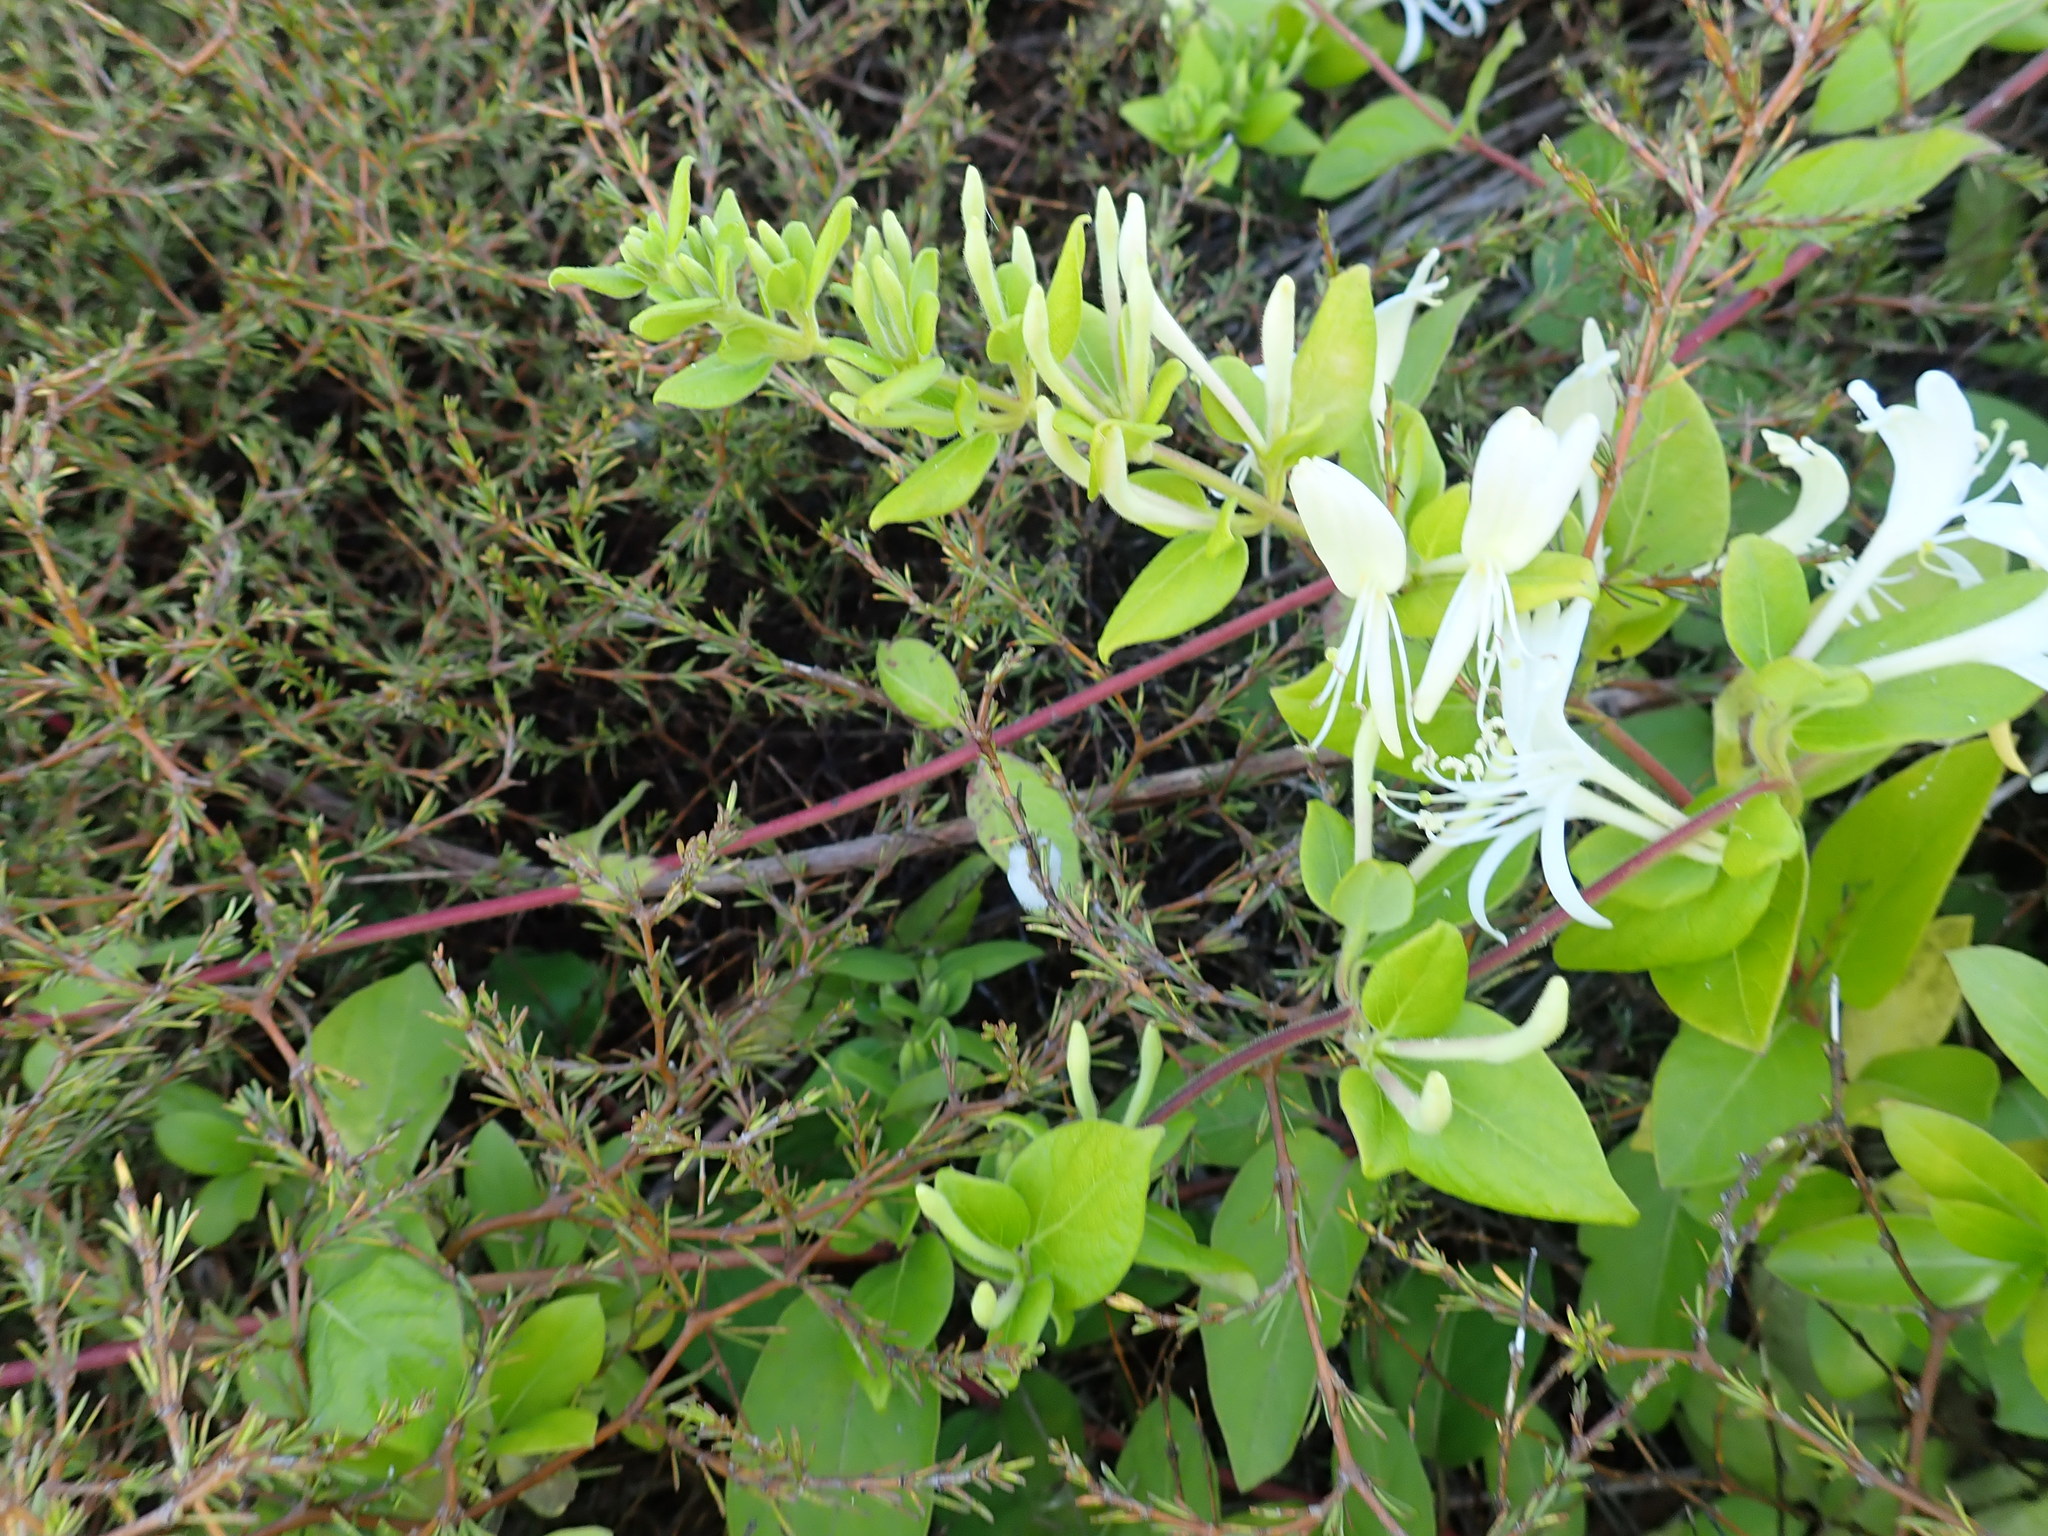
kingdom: Plantae
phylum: Tracheophyta
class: Magnoliopsida
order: Gentianales
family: Rubiaceae
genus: Coprosma
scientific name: Coprosma acerosa
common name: Sand coprosma
